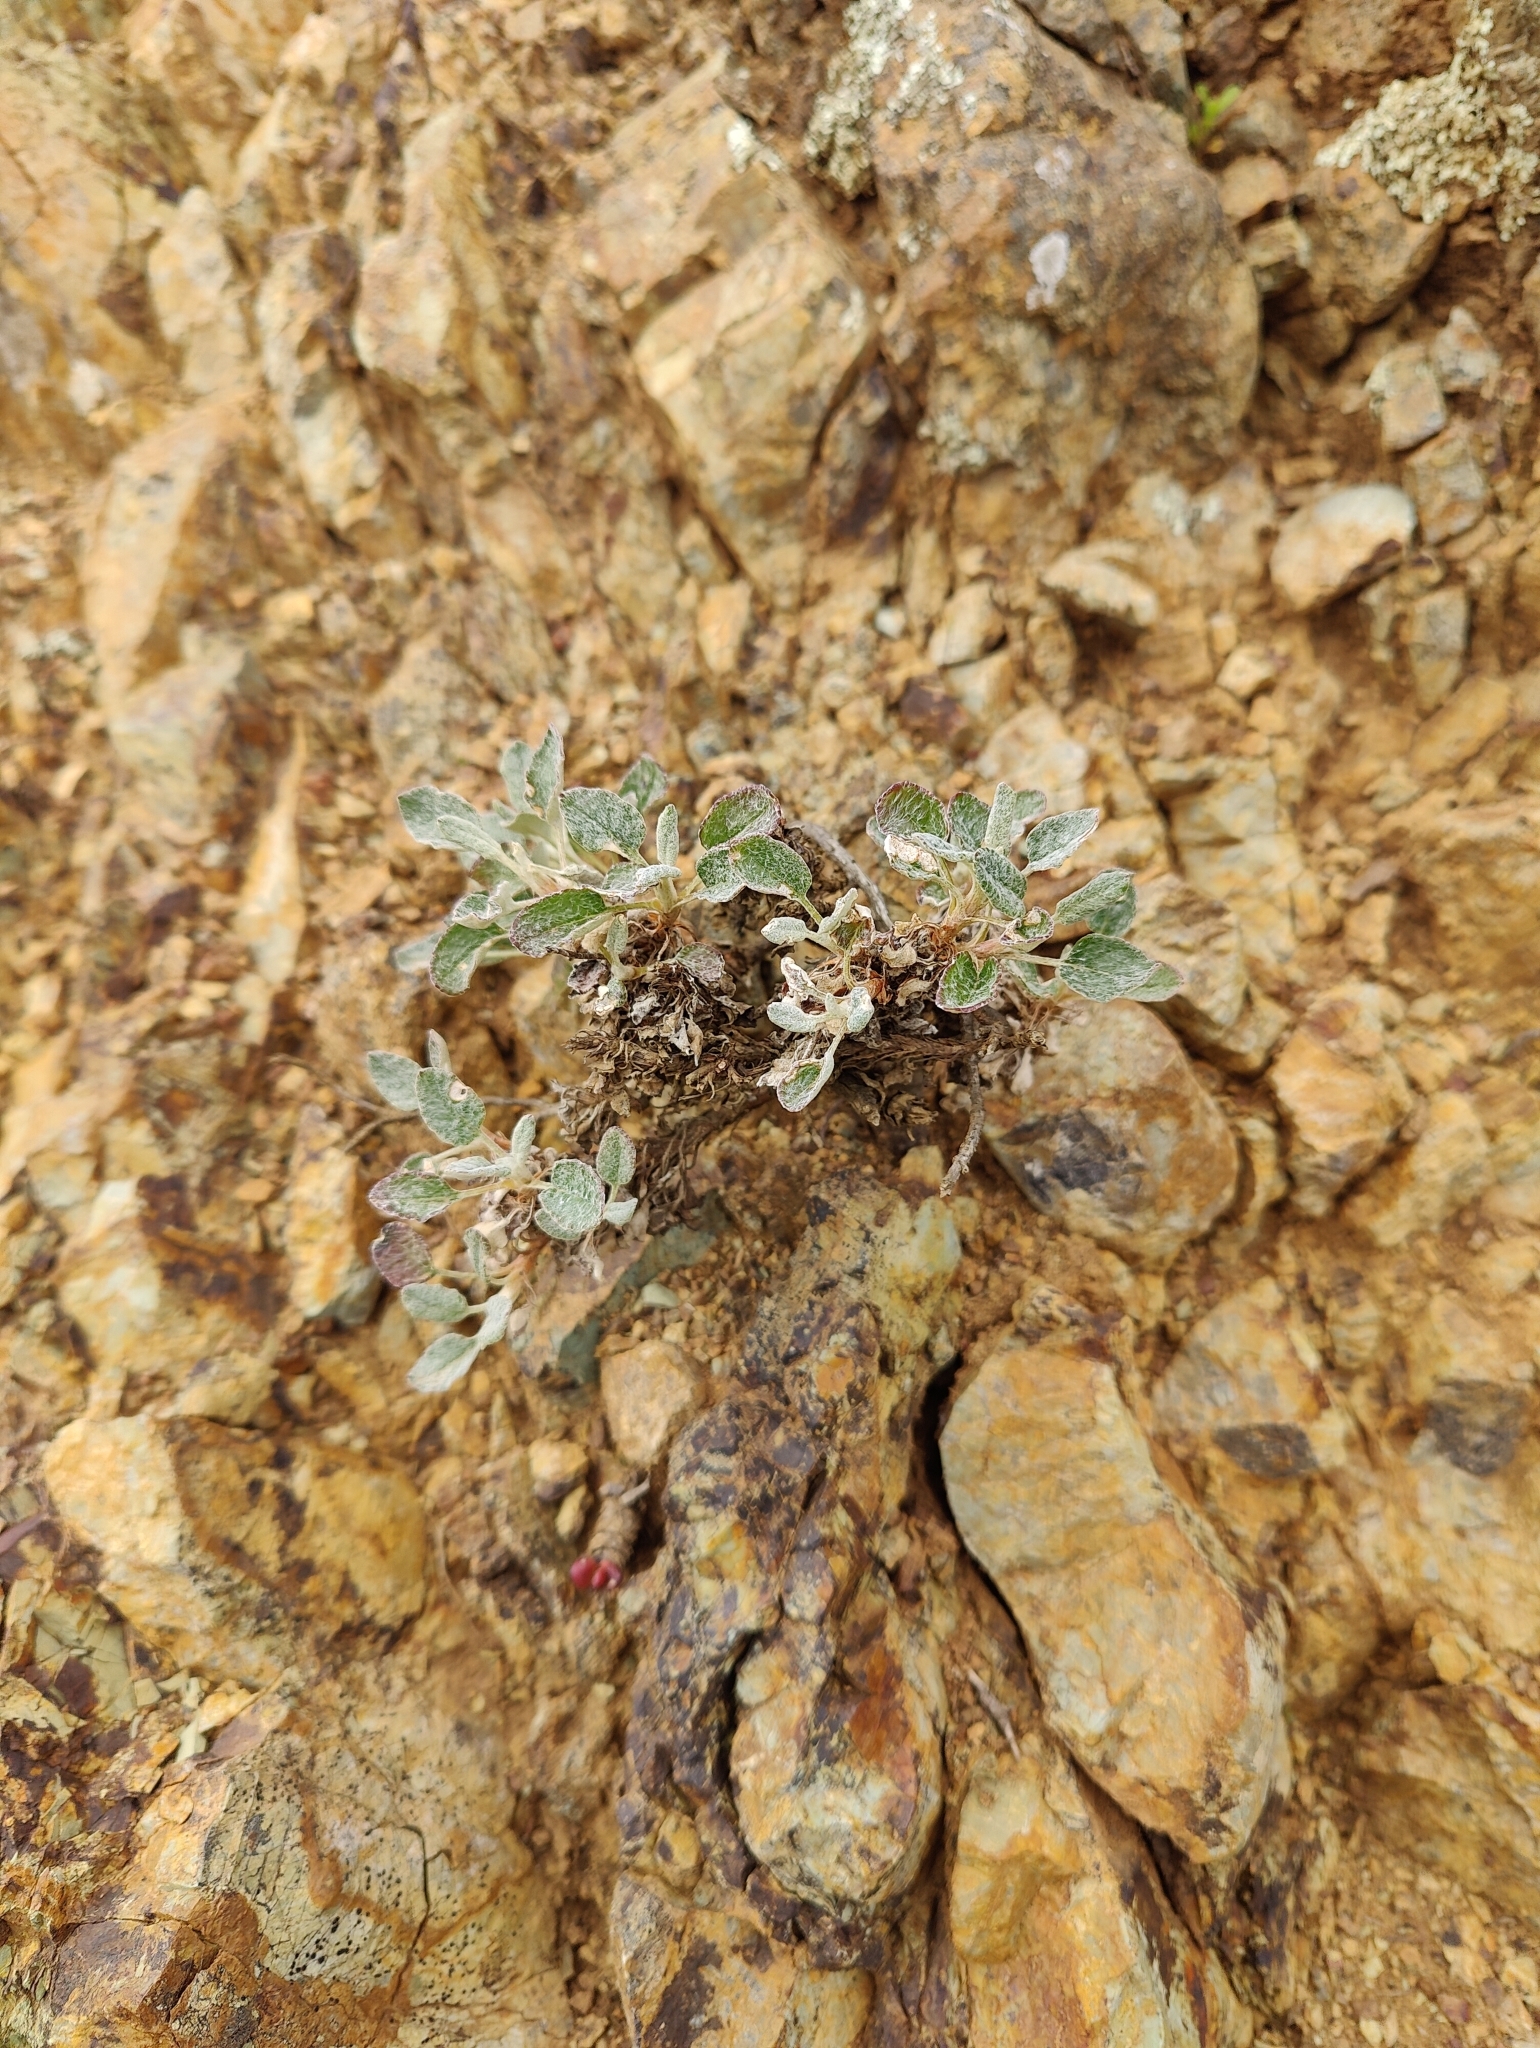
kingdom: Plantae
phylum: Tracheophyta
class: Magnoliopsida
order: Caryophyllales
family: Polygonaceae
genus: Eriogonum
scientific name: Eriogonum nudum
